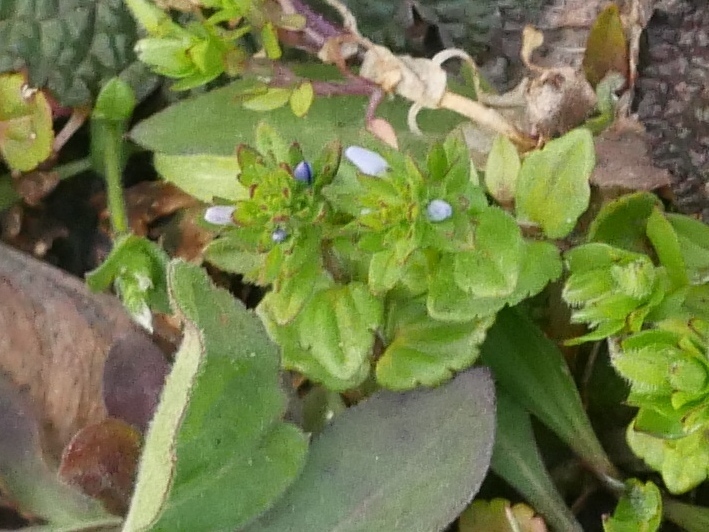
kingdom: Plantae
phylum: Tracheophyta
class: Magnoliopsida
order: Lamiales
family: Plantaginaceae
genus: Veronica
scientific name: Veronica arvensis
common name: Corn speedwell
